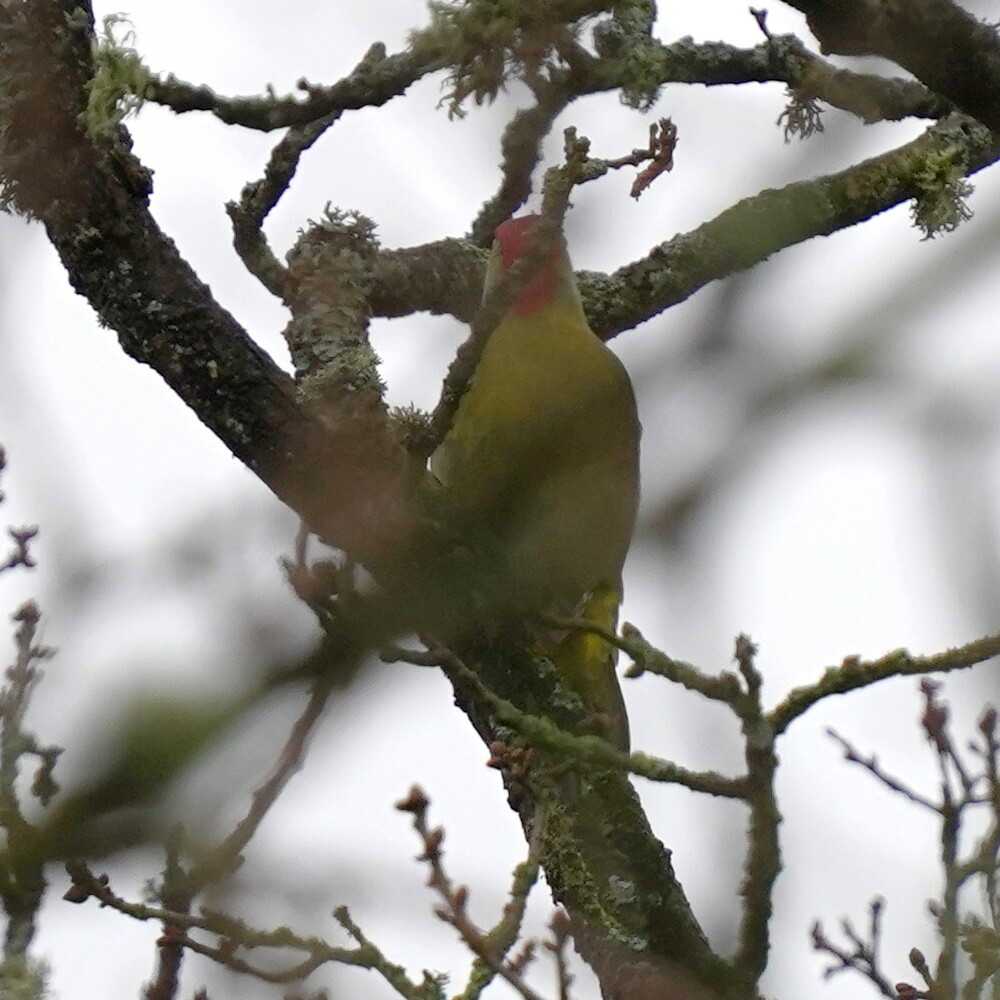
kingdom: Animalia
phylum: Chordata
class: Aves
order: Piciformes
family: Picidae
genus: Picus
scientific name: Picus viridis
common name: European green woodpecker
